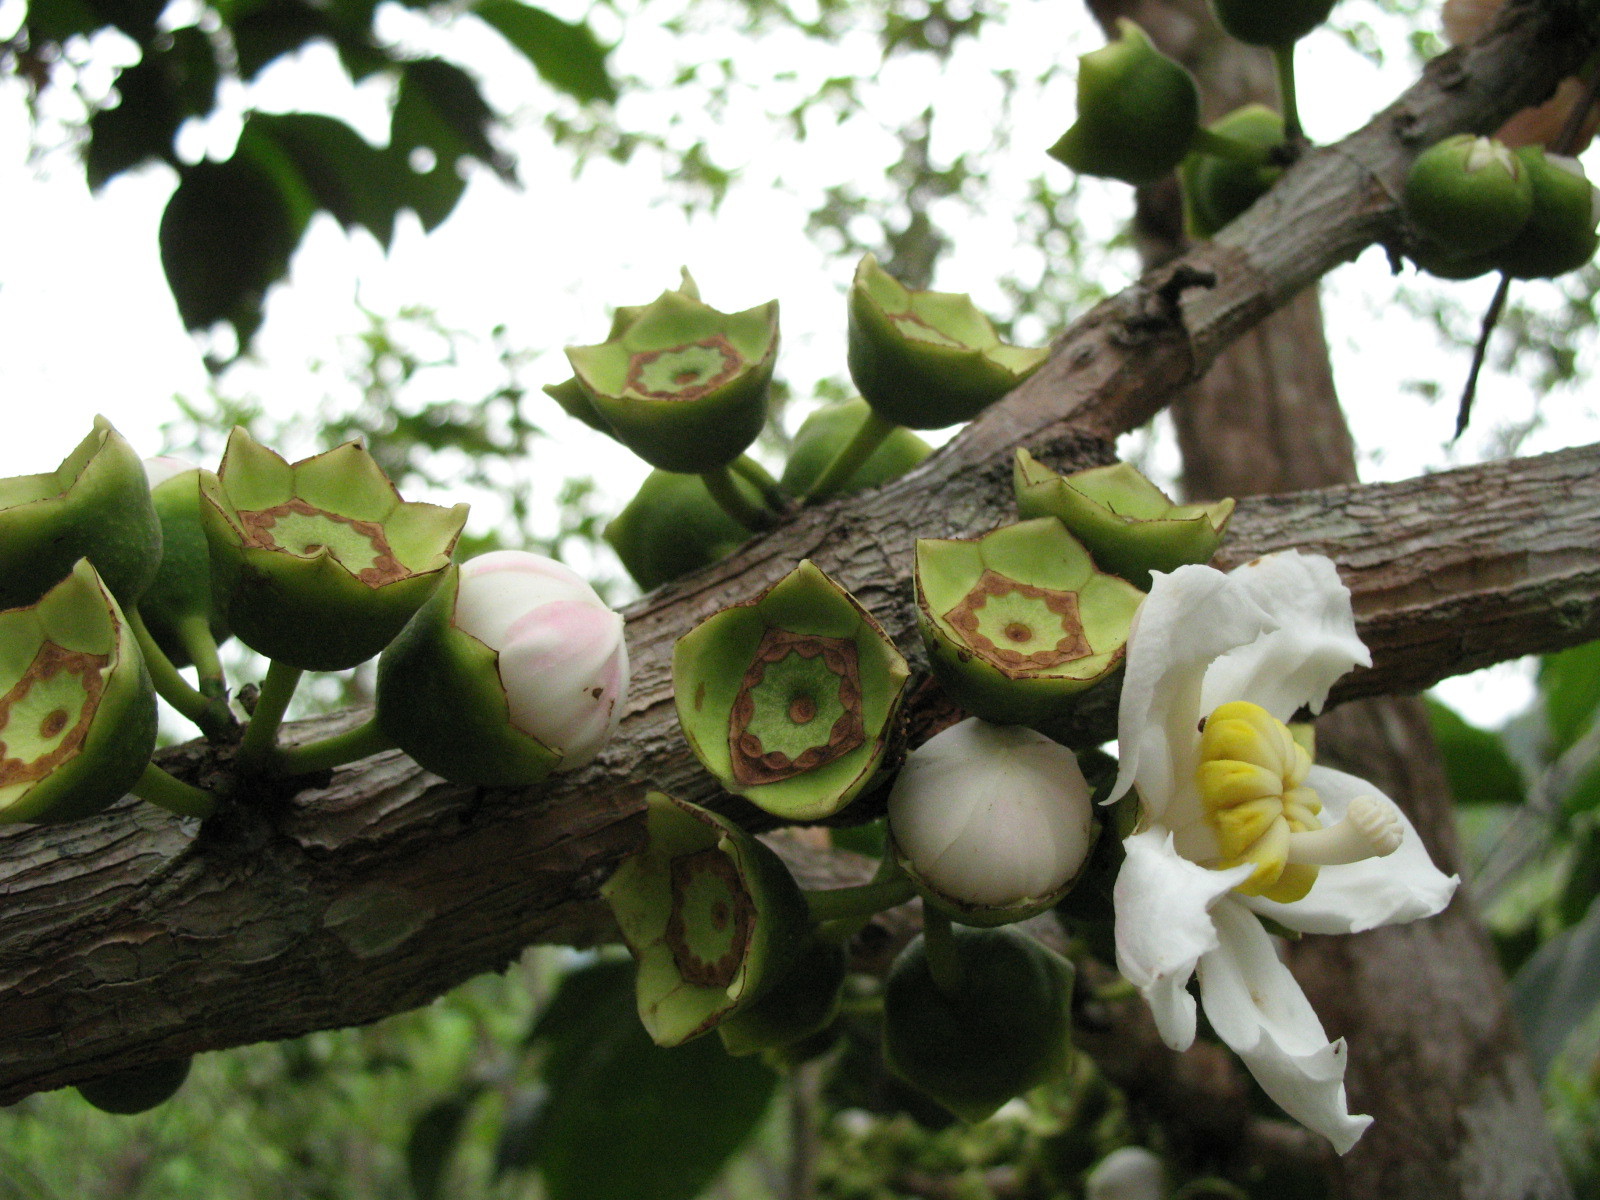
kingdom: Plantae
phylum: Tracheophyta
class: Magnoliopsida
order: Myrtales
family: Melastomataceae
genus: Bellucia
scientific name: Bellucia pentamera
